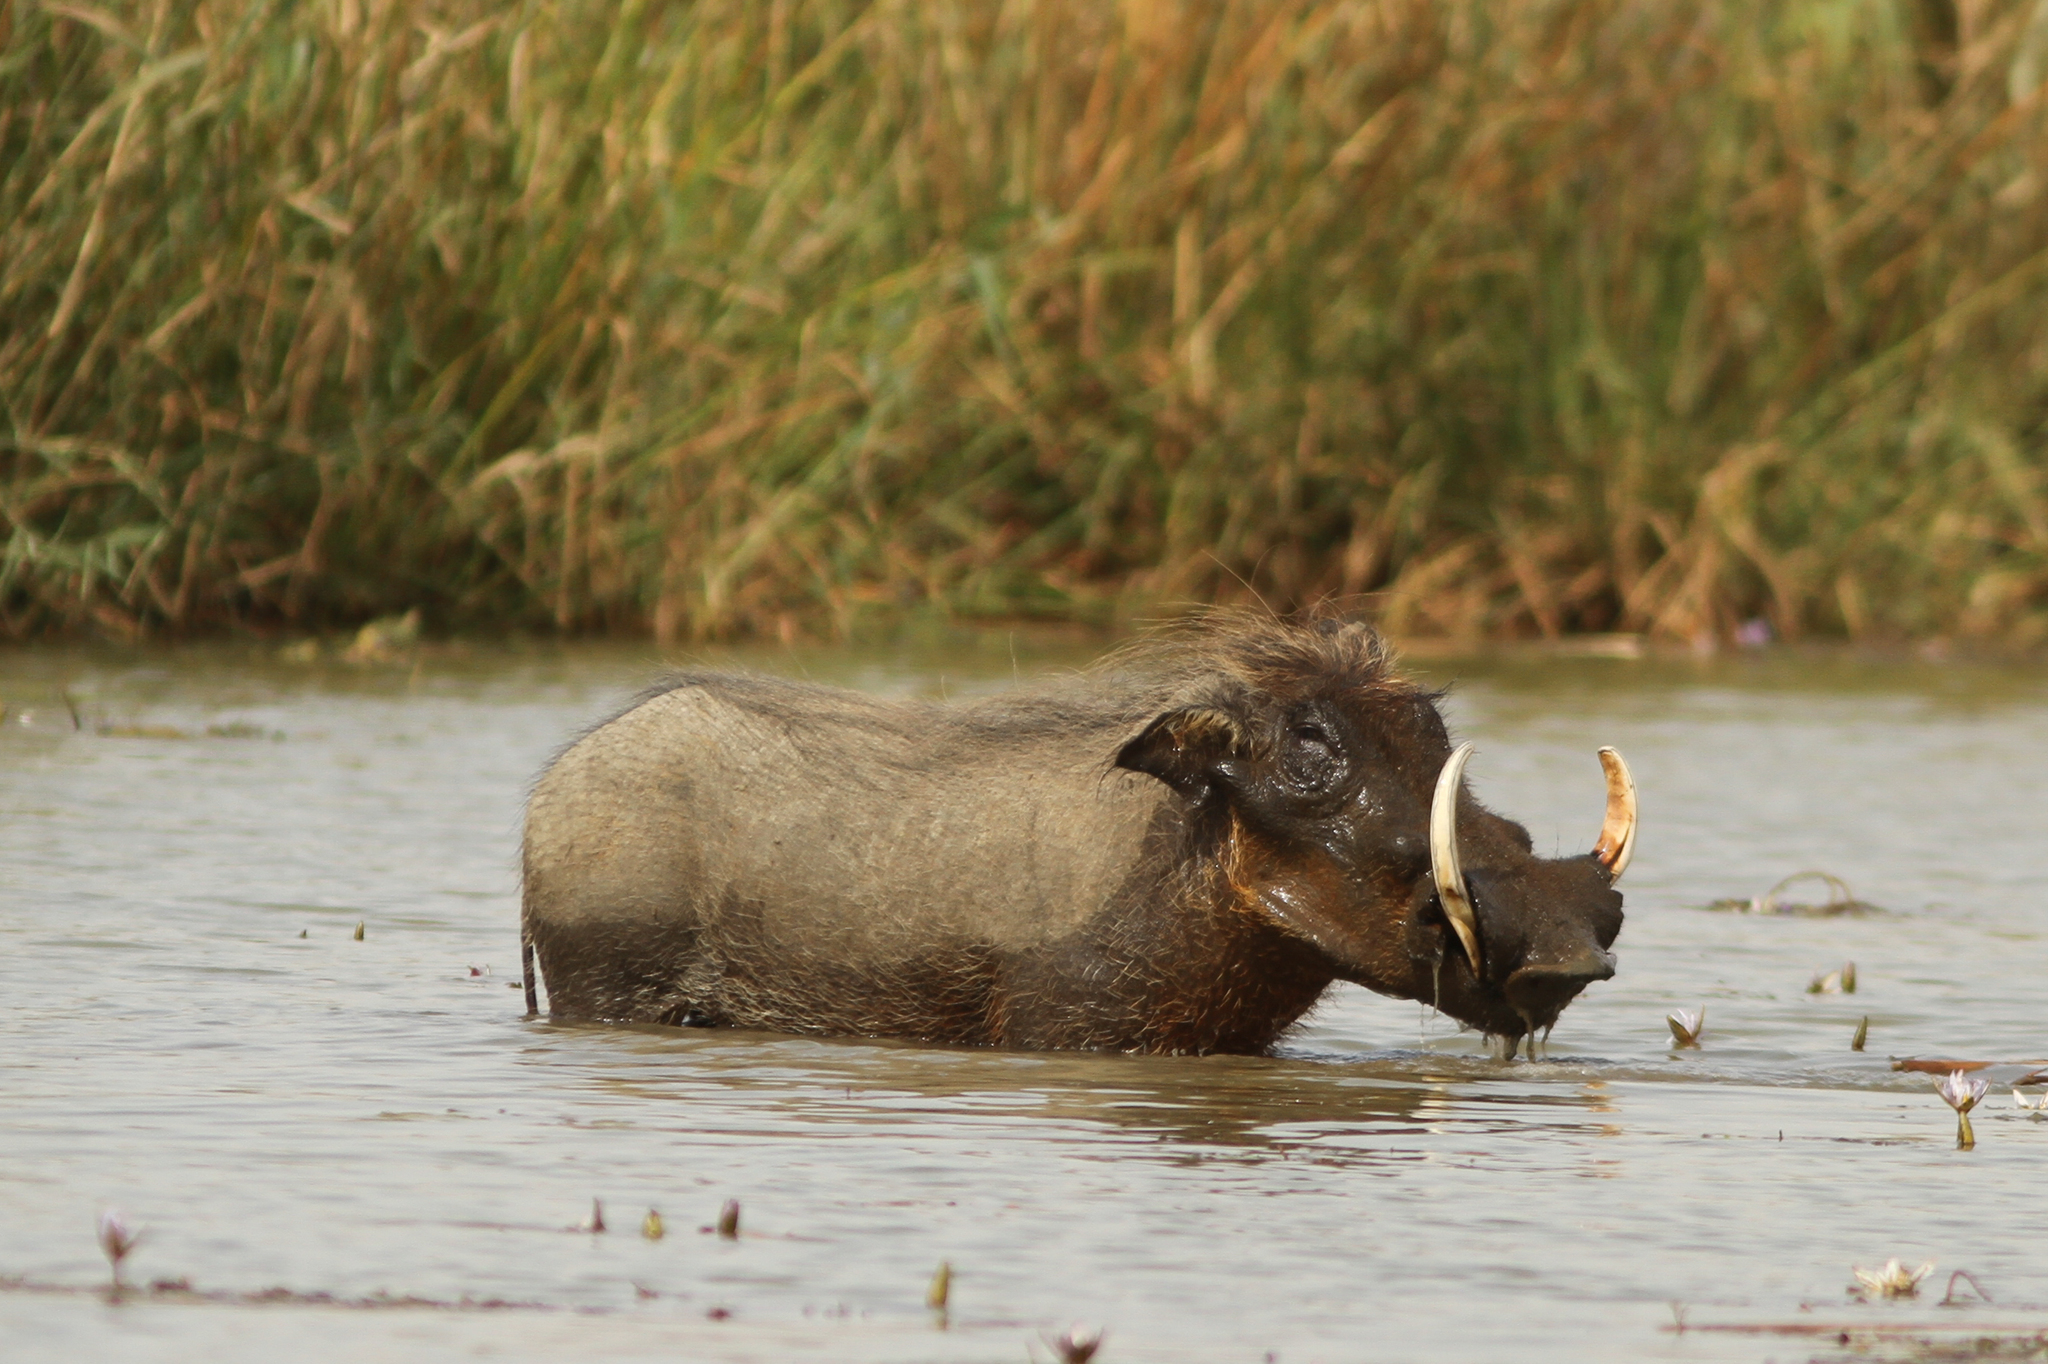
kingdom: Animalia
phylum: Chordata
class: Mammalia
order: Artiodactyla
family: Suidae
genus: Phacochoerus
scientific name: Phacochoerus africanus
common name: Common warthog
